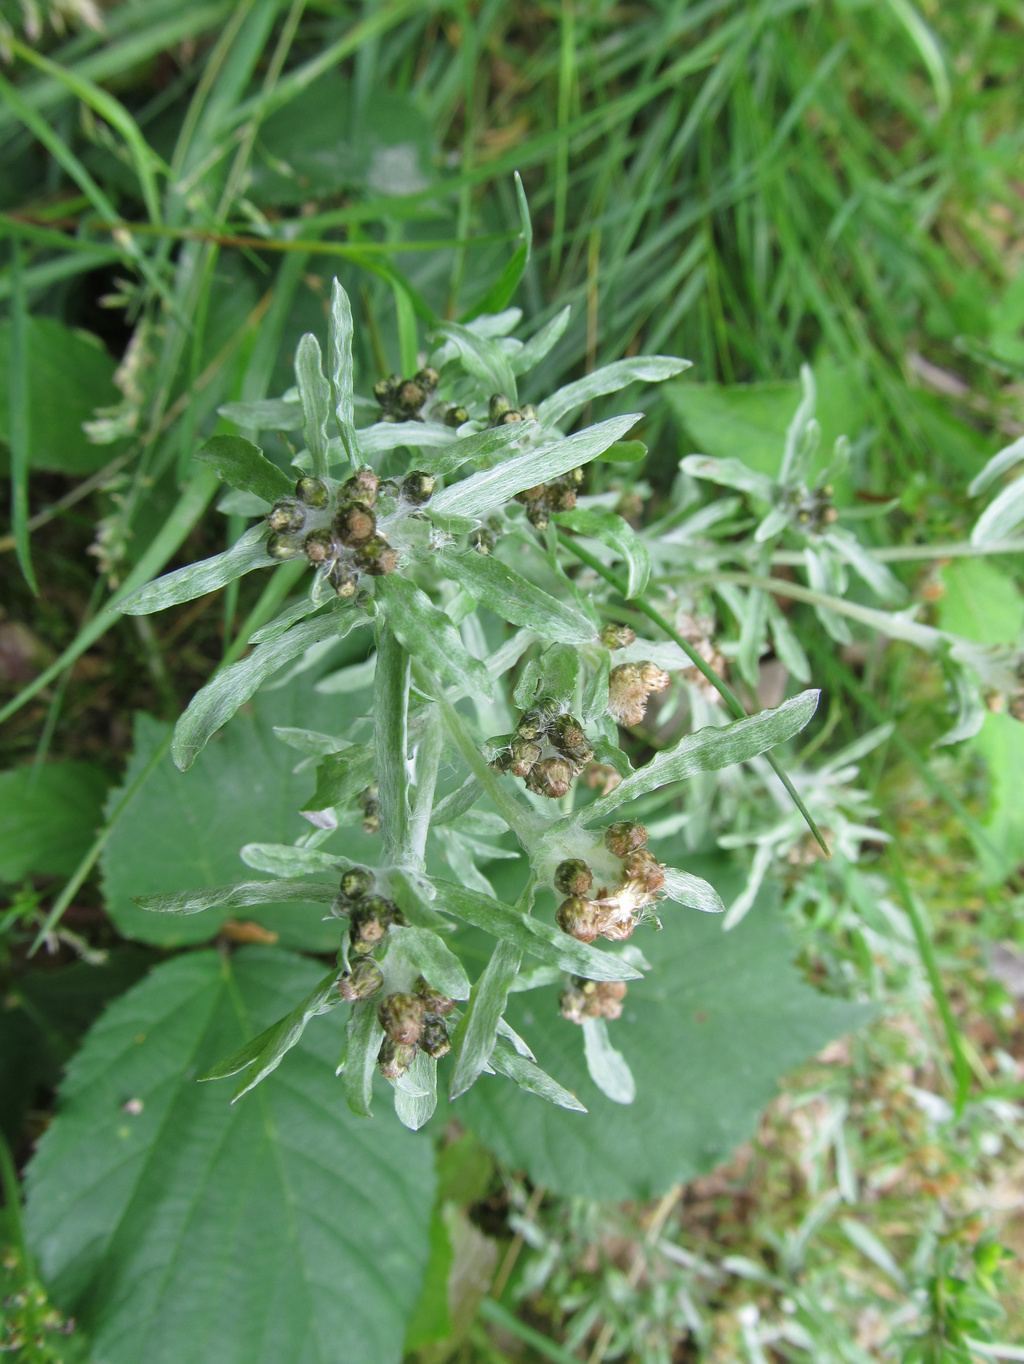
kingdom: Plantae
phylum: Tracheophyta
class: Magnoliopsida
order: Asterales
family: Asteraceae
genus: Gnaphalium
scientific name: Gnaphalium uliginosum
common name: Marsh cudweed
